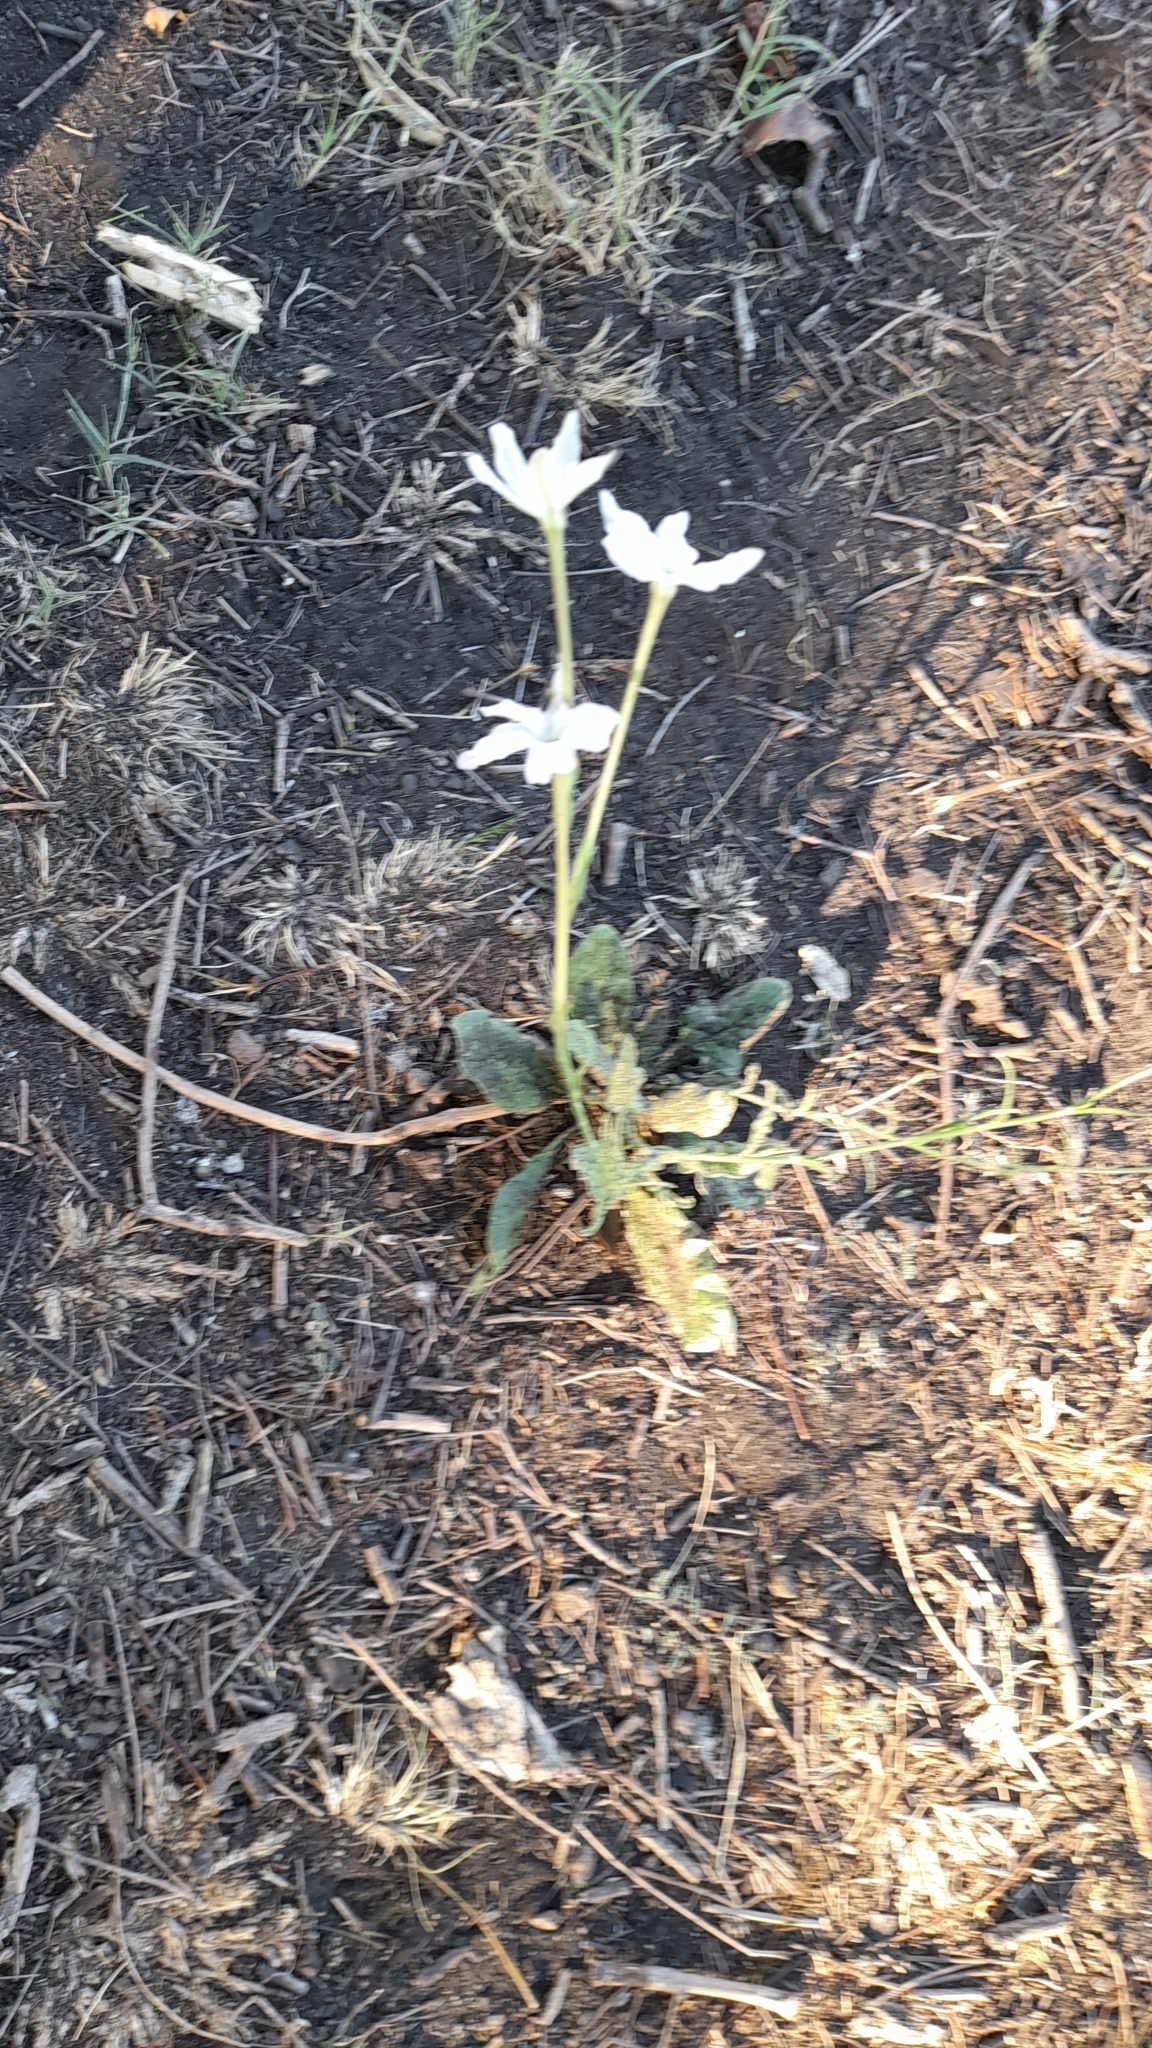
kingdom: Plantae
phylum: Tracheophyta
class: Magnoliopsida
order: Solanales
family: Solanaceae
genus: Nicotiana
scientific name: Nicotiana longiflora
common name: Long-flowered tobacco
